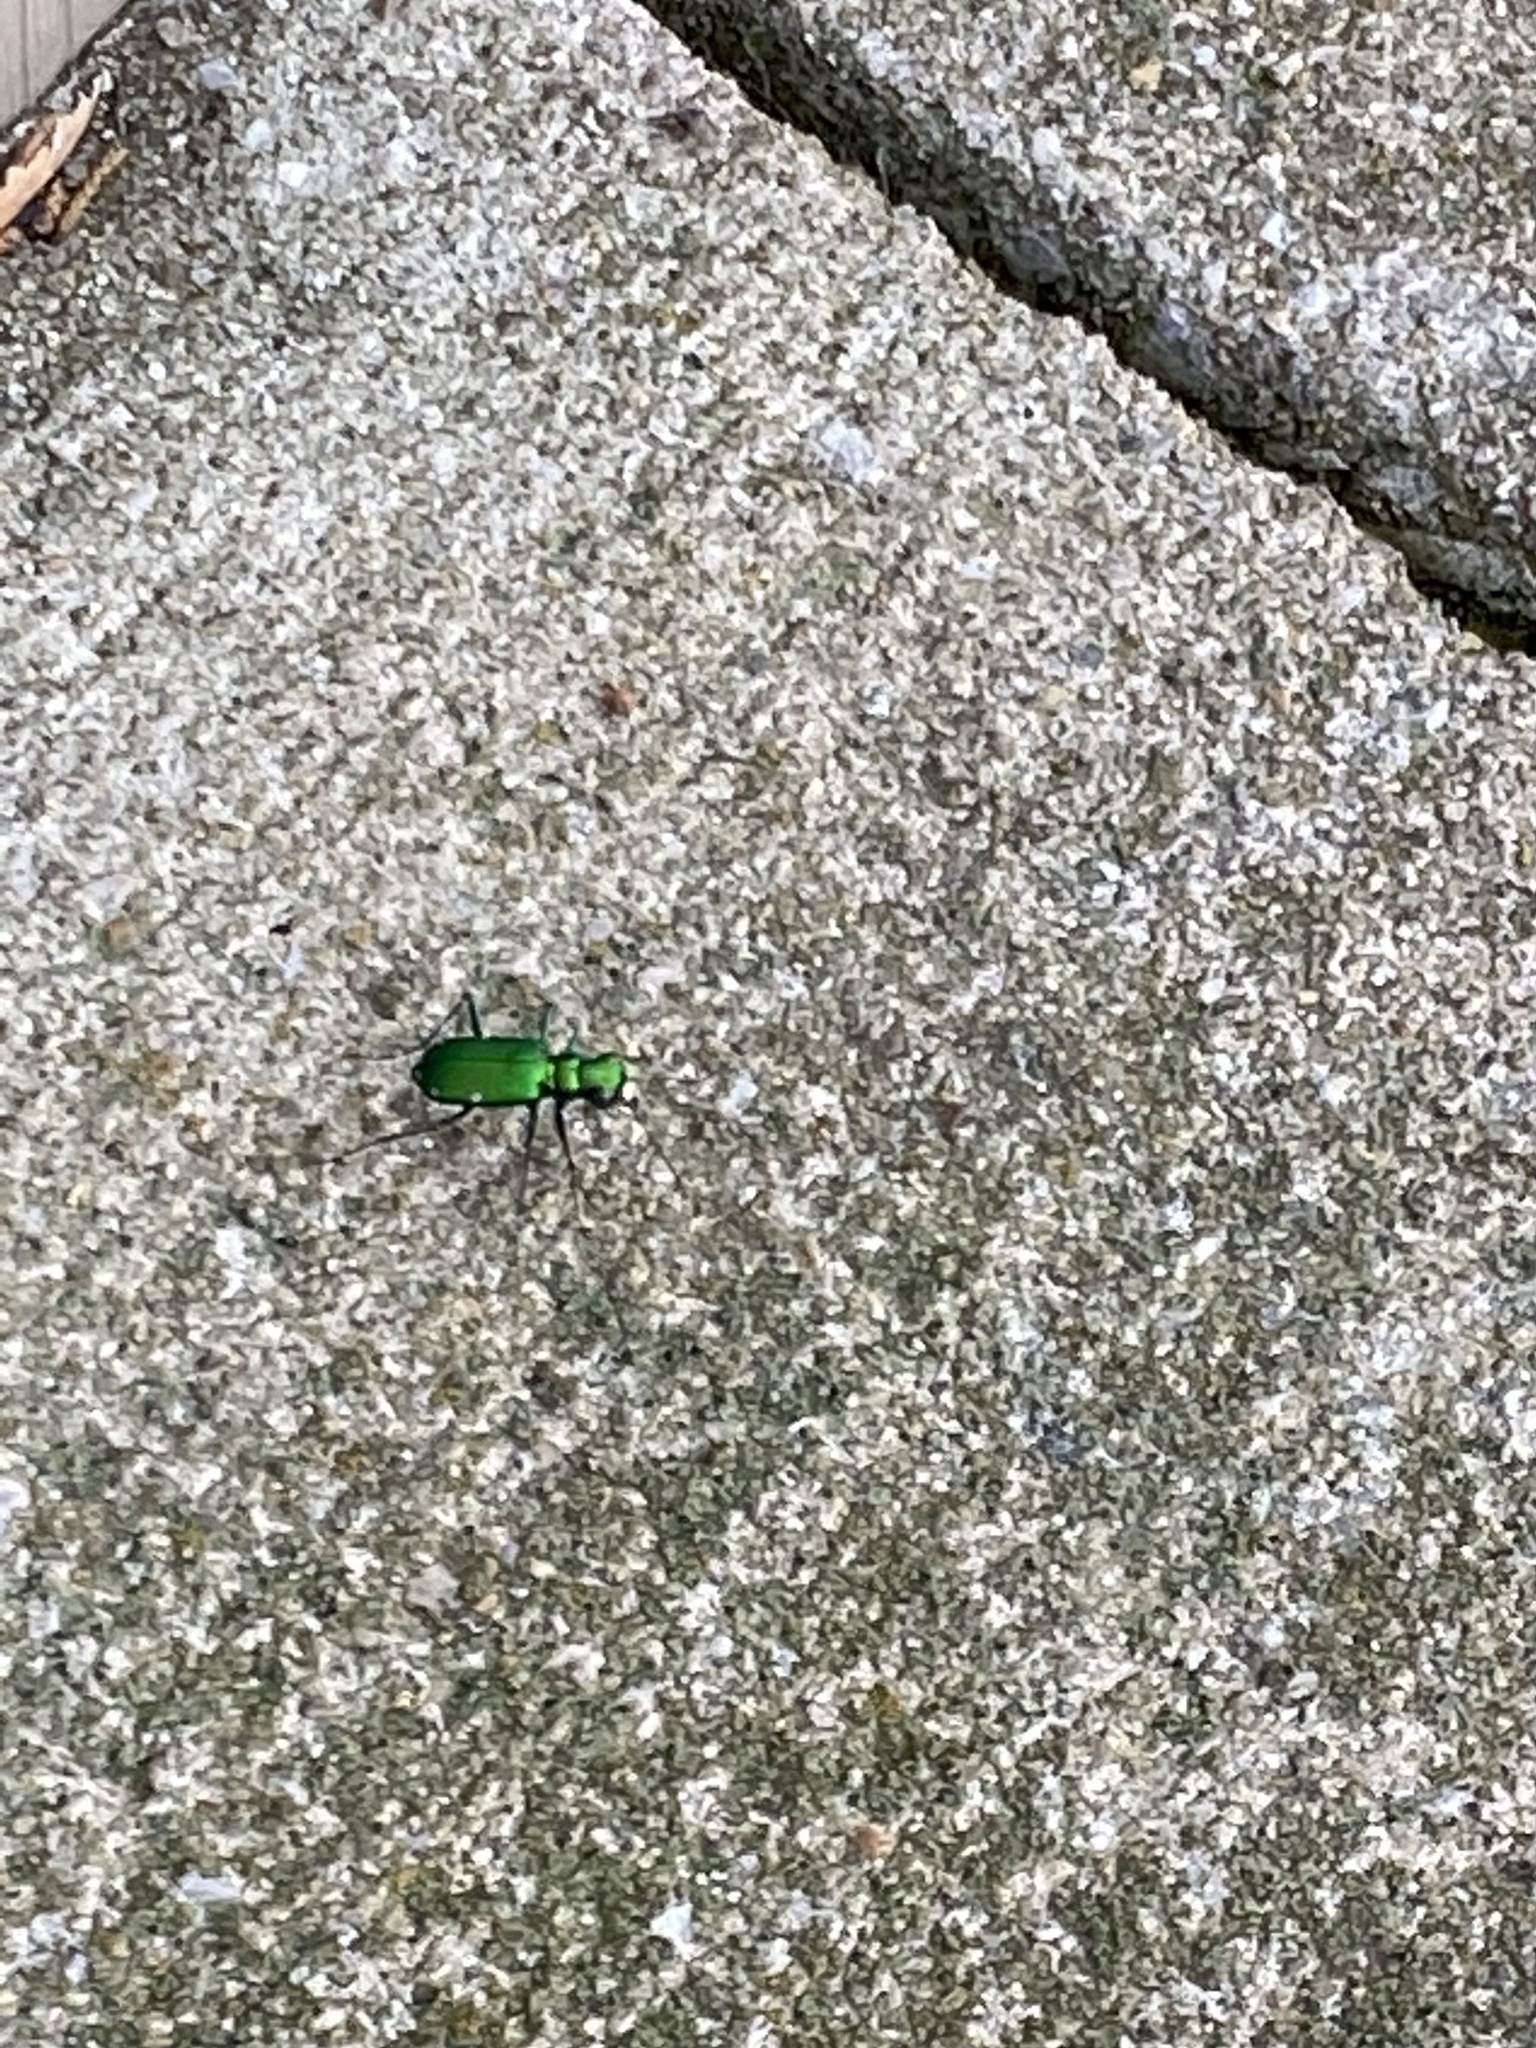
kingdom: Animalia
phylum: Arthropoda
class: Insecta
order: Coleoptera
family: Carabidae
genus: Cicindela
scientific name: Cicindela sexguttata
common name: Six-spotted tiger beetle
